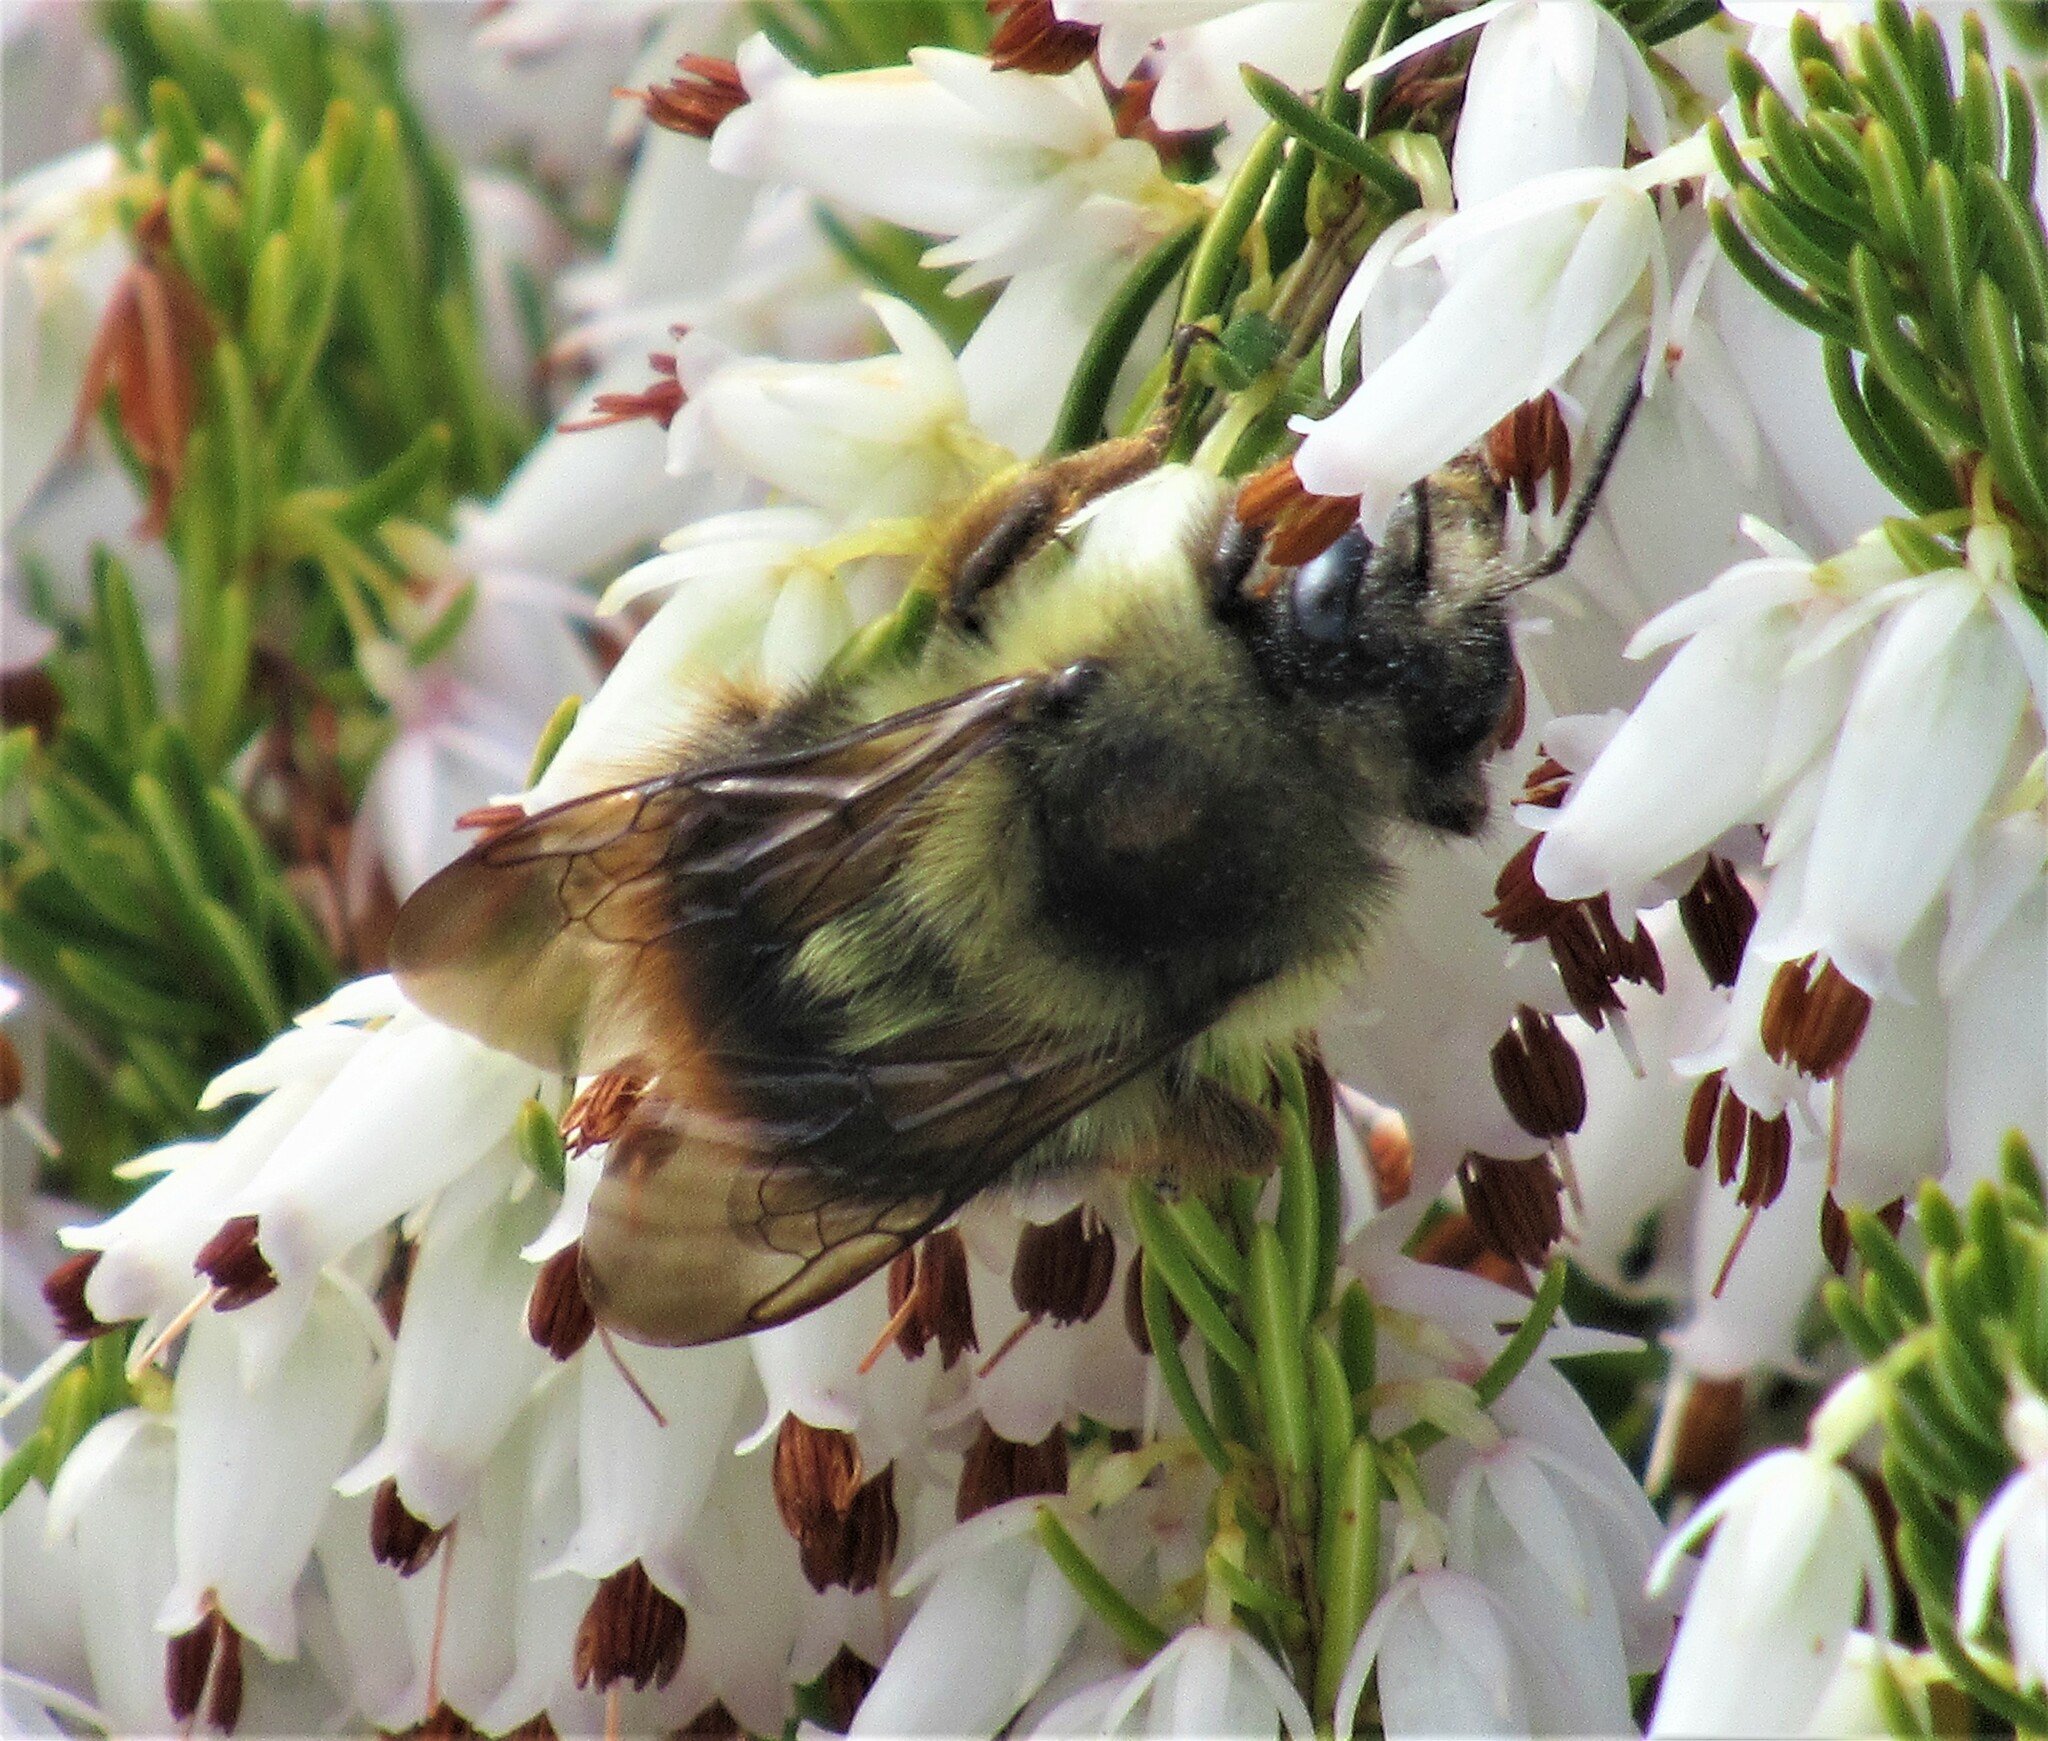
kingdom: Animalia
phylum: Arthropoda
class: Insecta
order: Hymenoptera
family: Apidae
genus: Bombus
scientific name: Bombus mixtus
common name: Fuzzy-horned bumble bee
